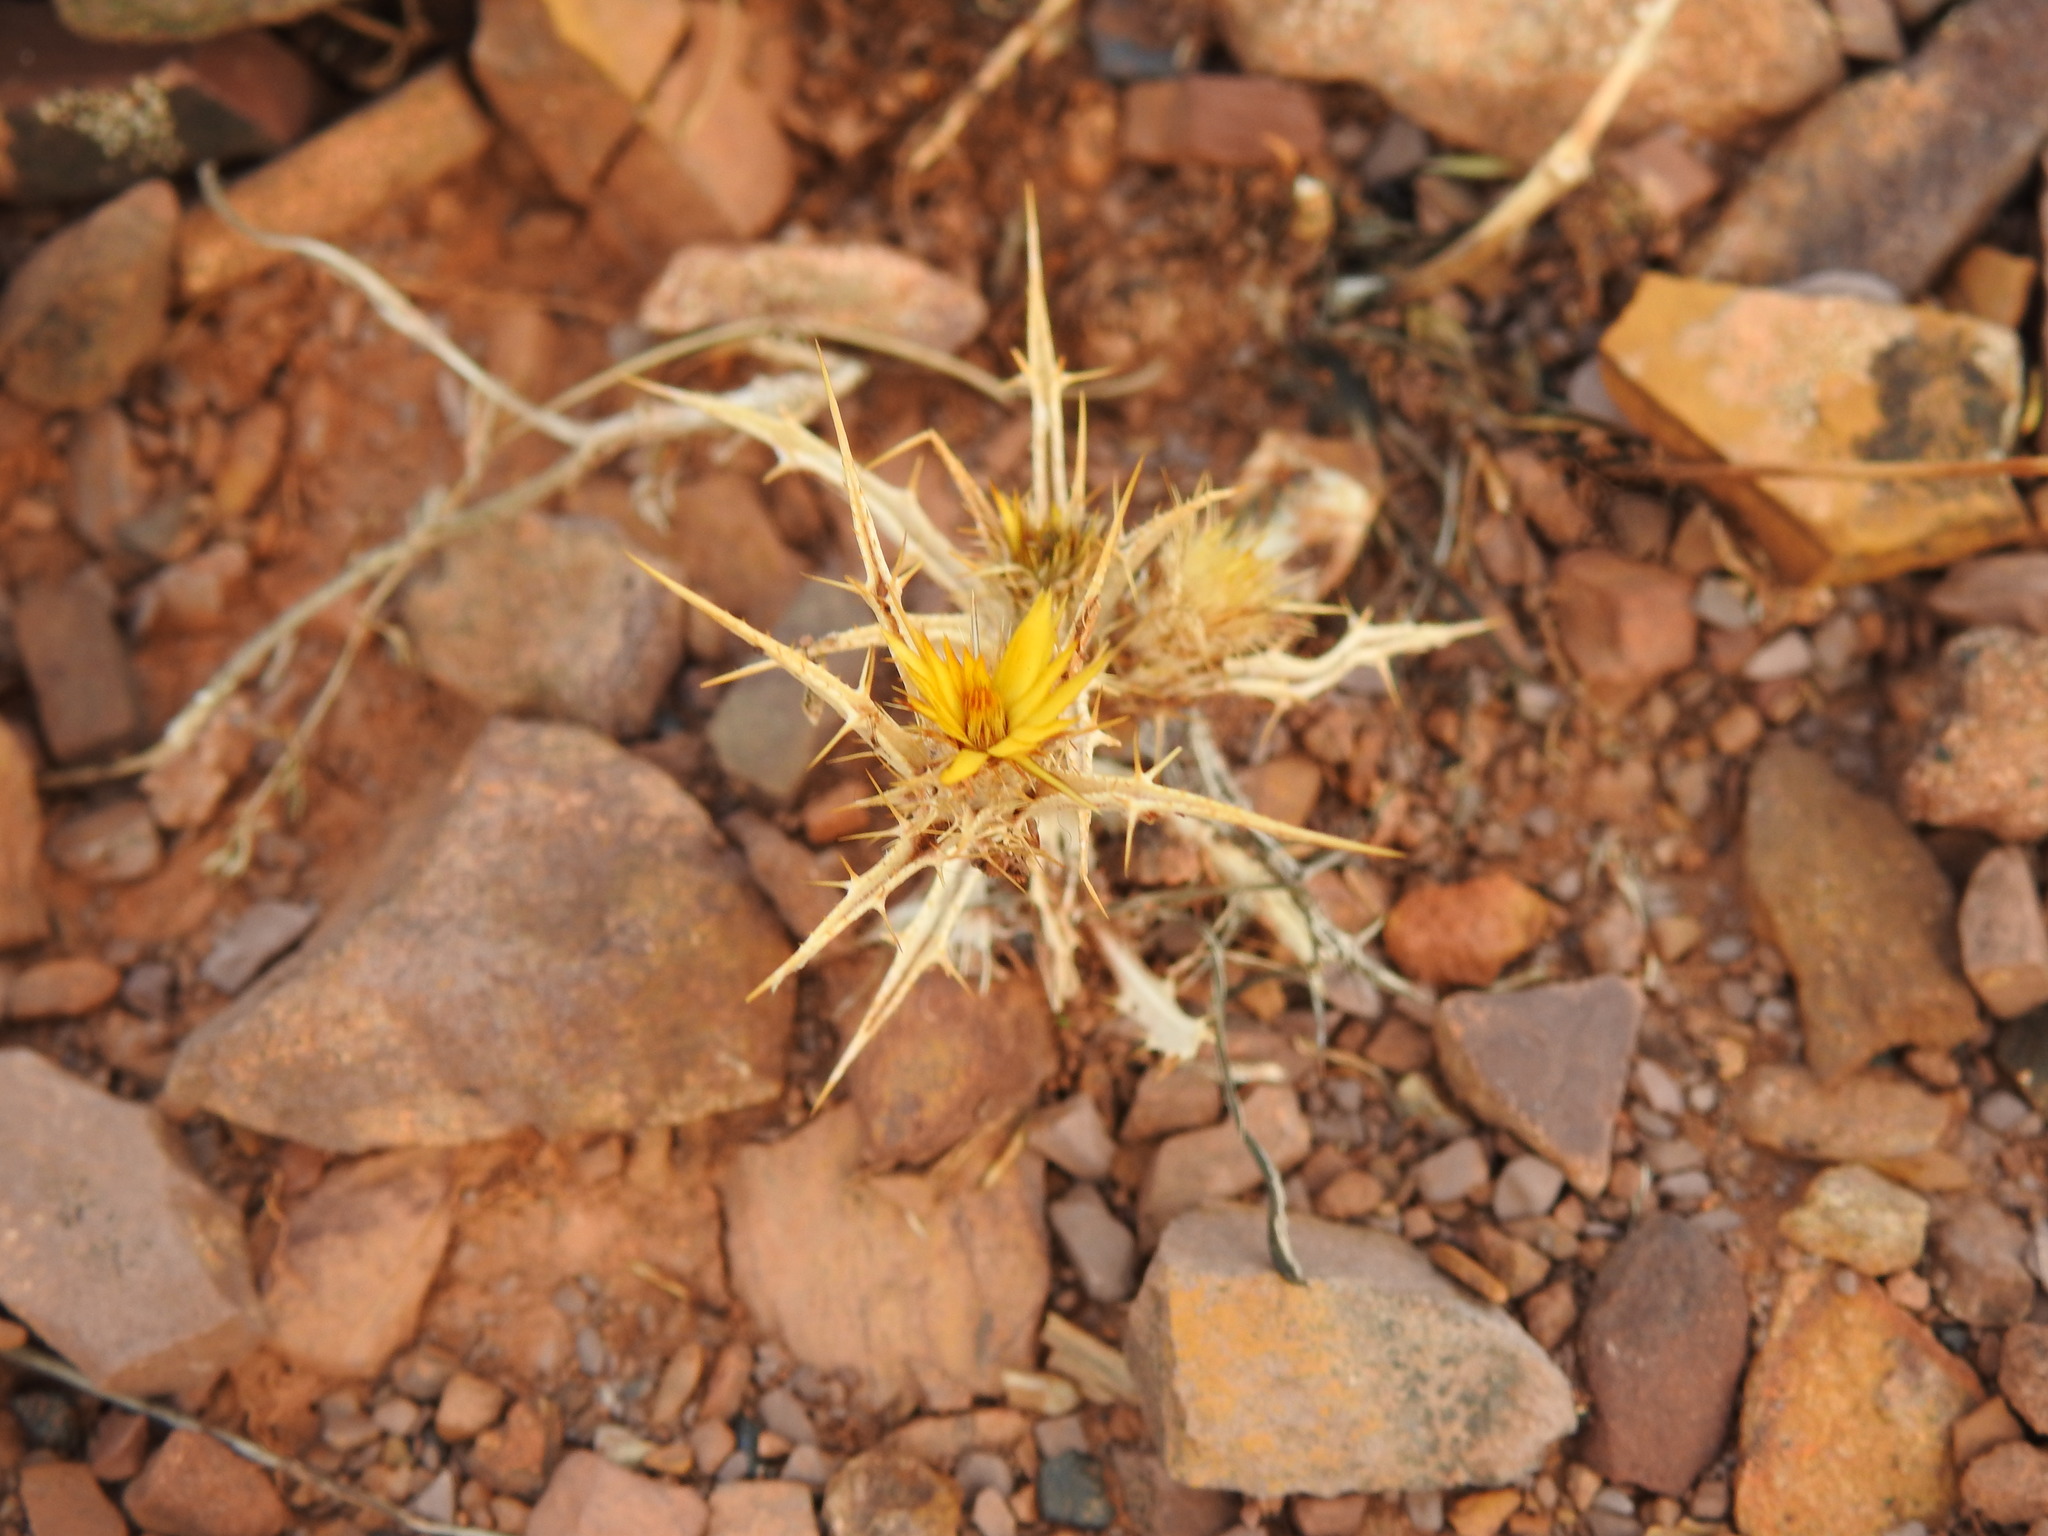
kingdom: Plantae
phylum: Tracheophyta
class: Magnoliopsida
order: Asterales
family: Asteraceae
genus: Carlina
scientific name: Carlina racemosa
